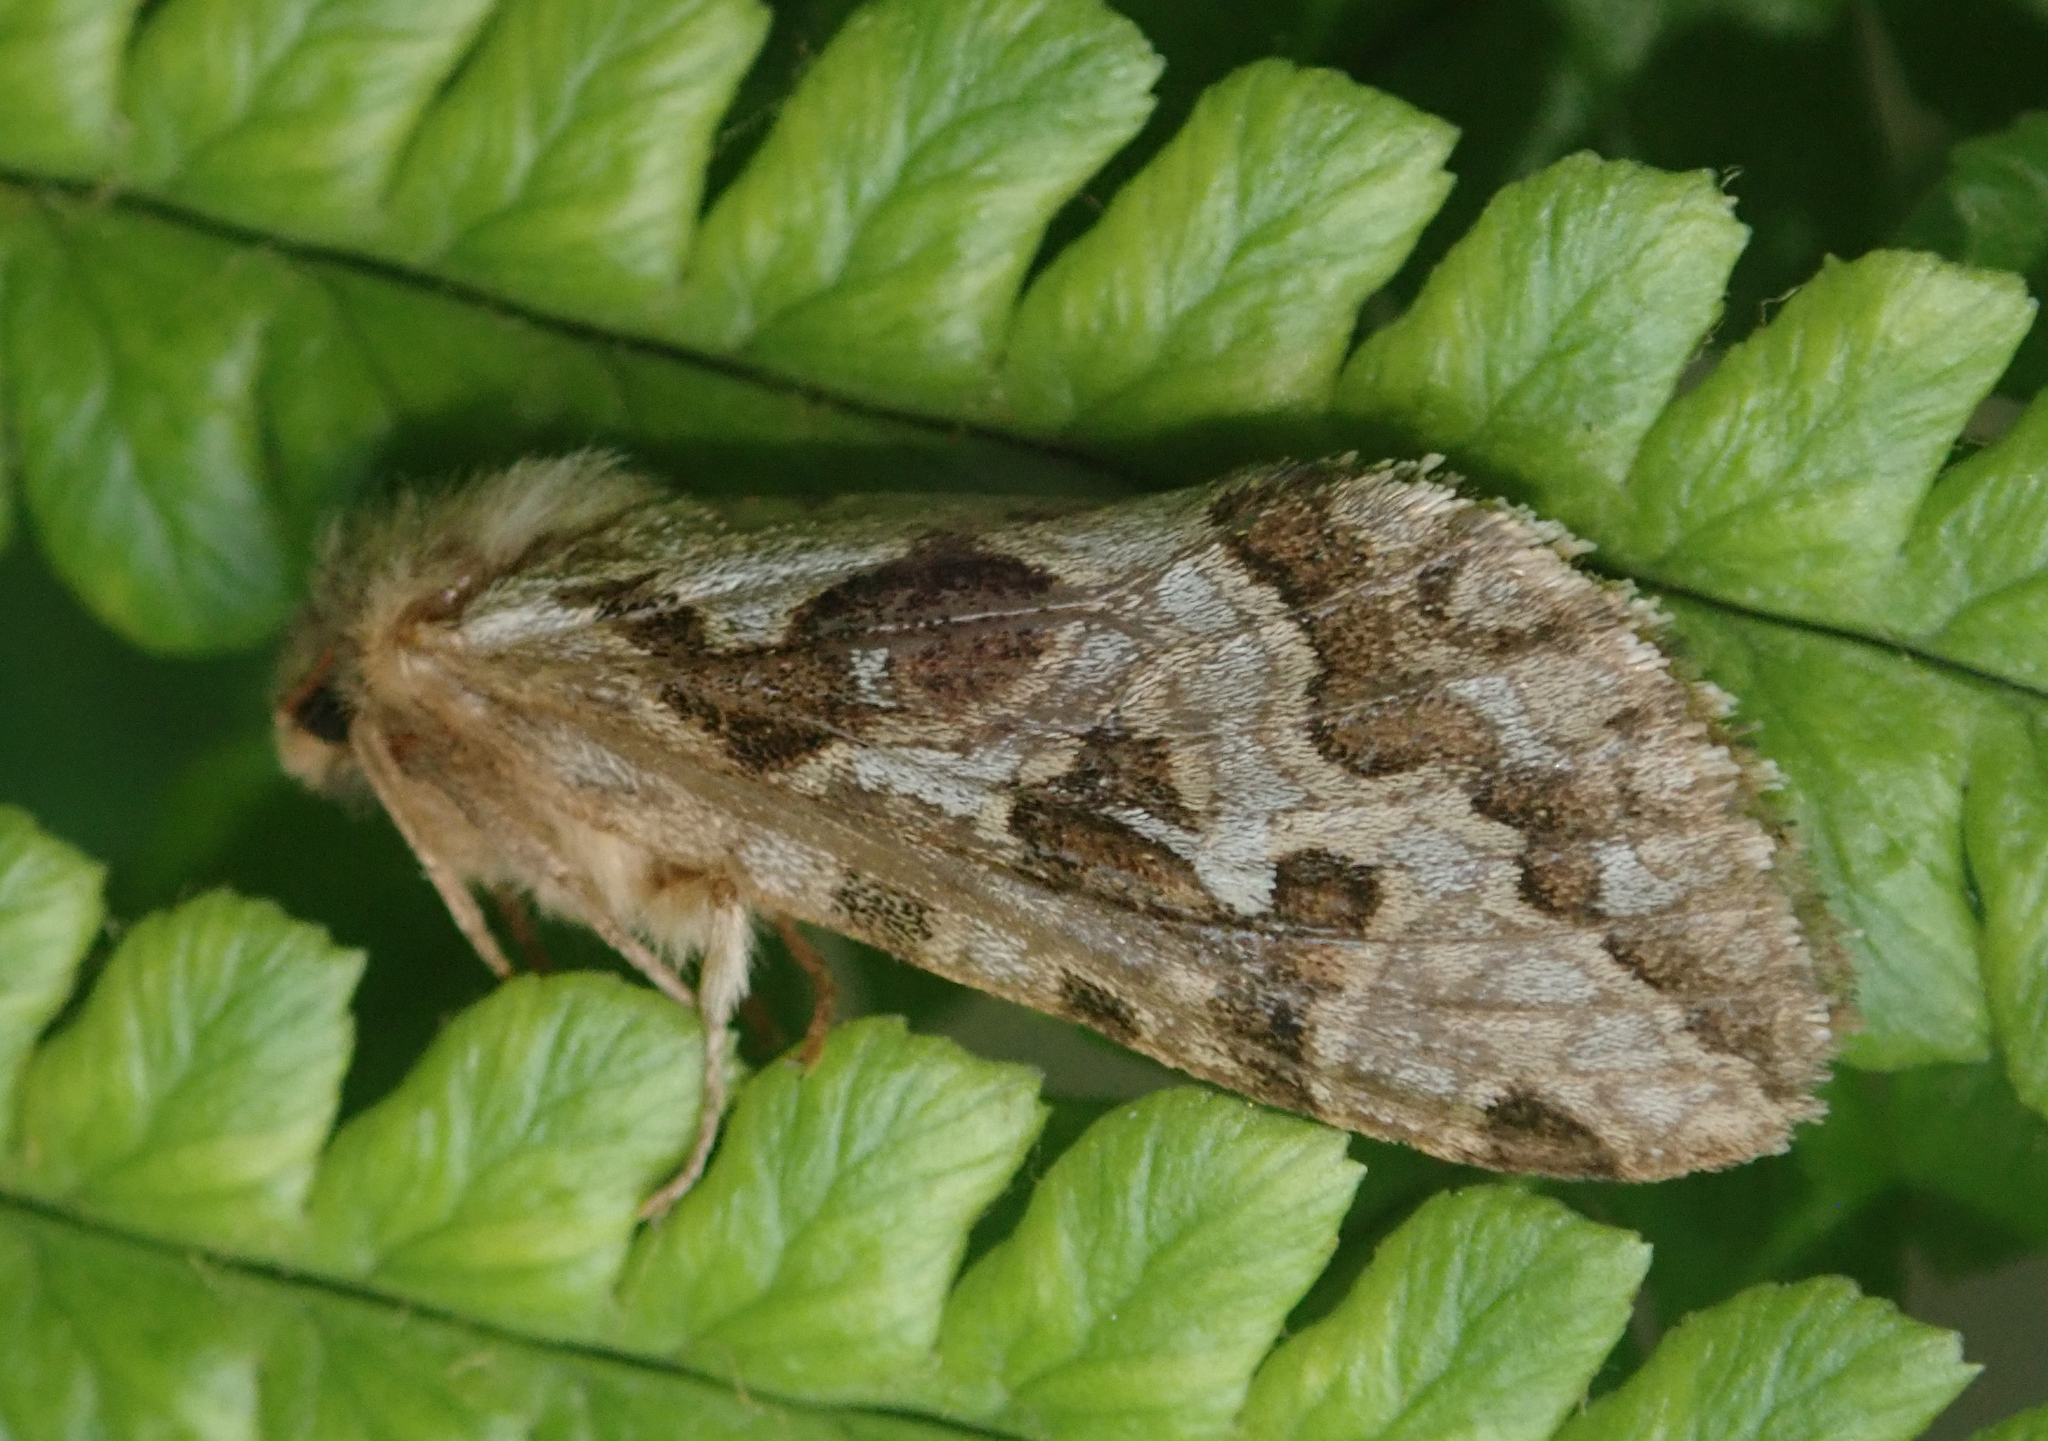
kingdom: Animalia
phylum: Arthropoda
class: Insecta
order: Lepidoptera
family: Hepialidae
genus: Korscheltellus
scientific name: Korscheltellus fusconebulosus
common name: Map-winged swift
